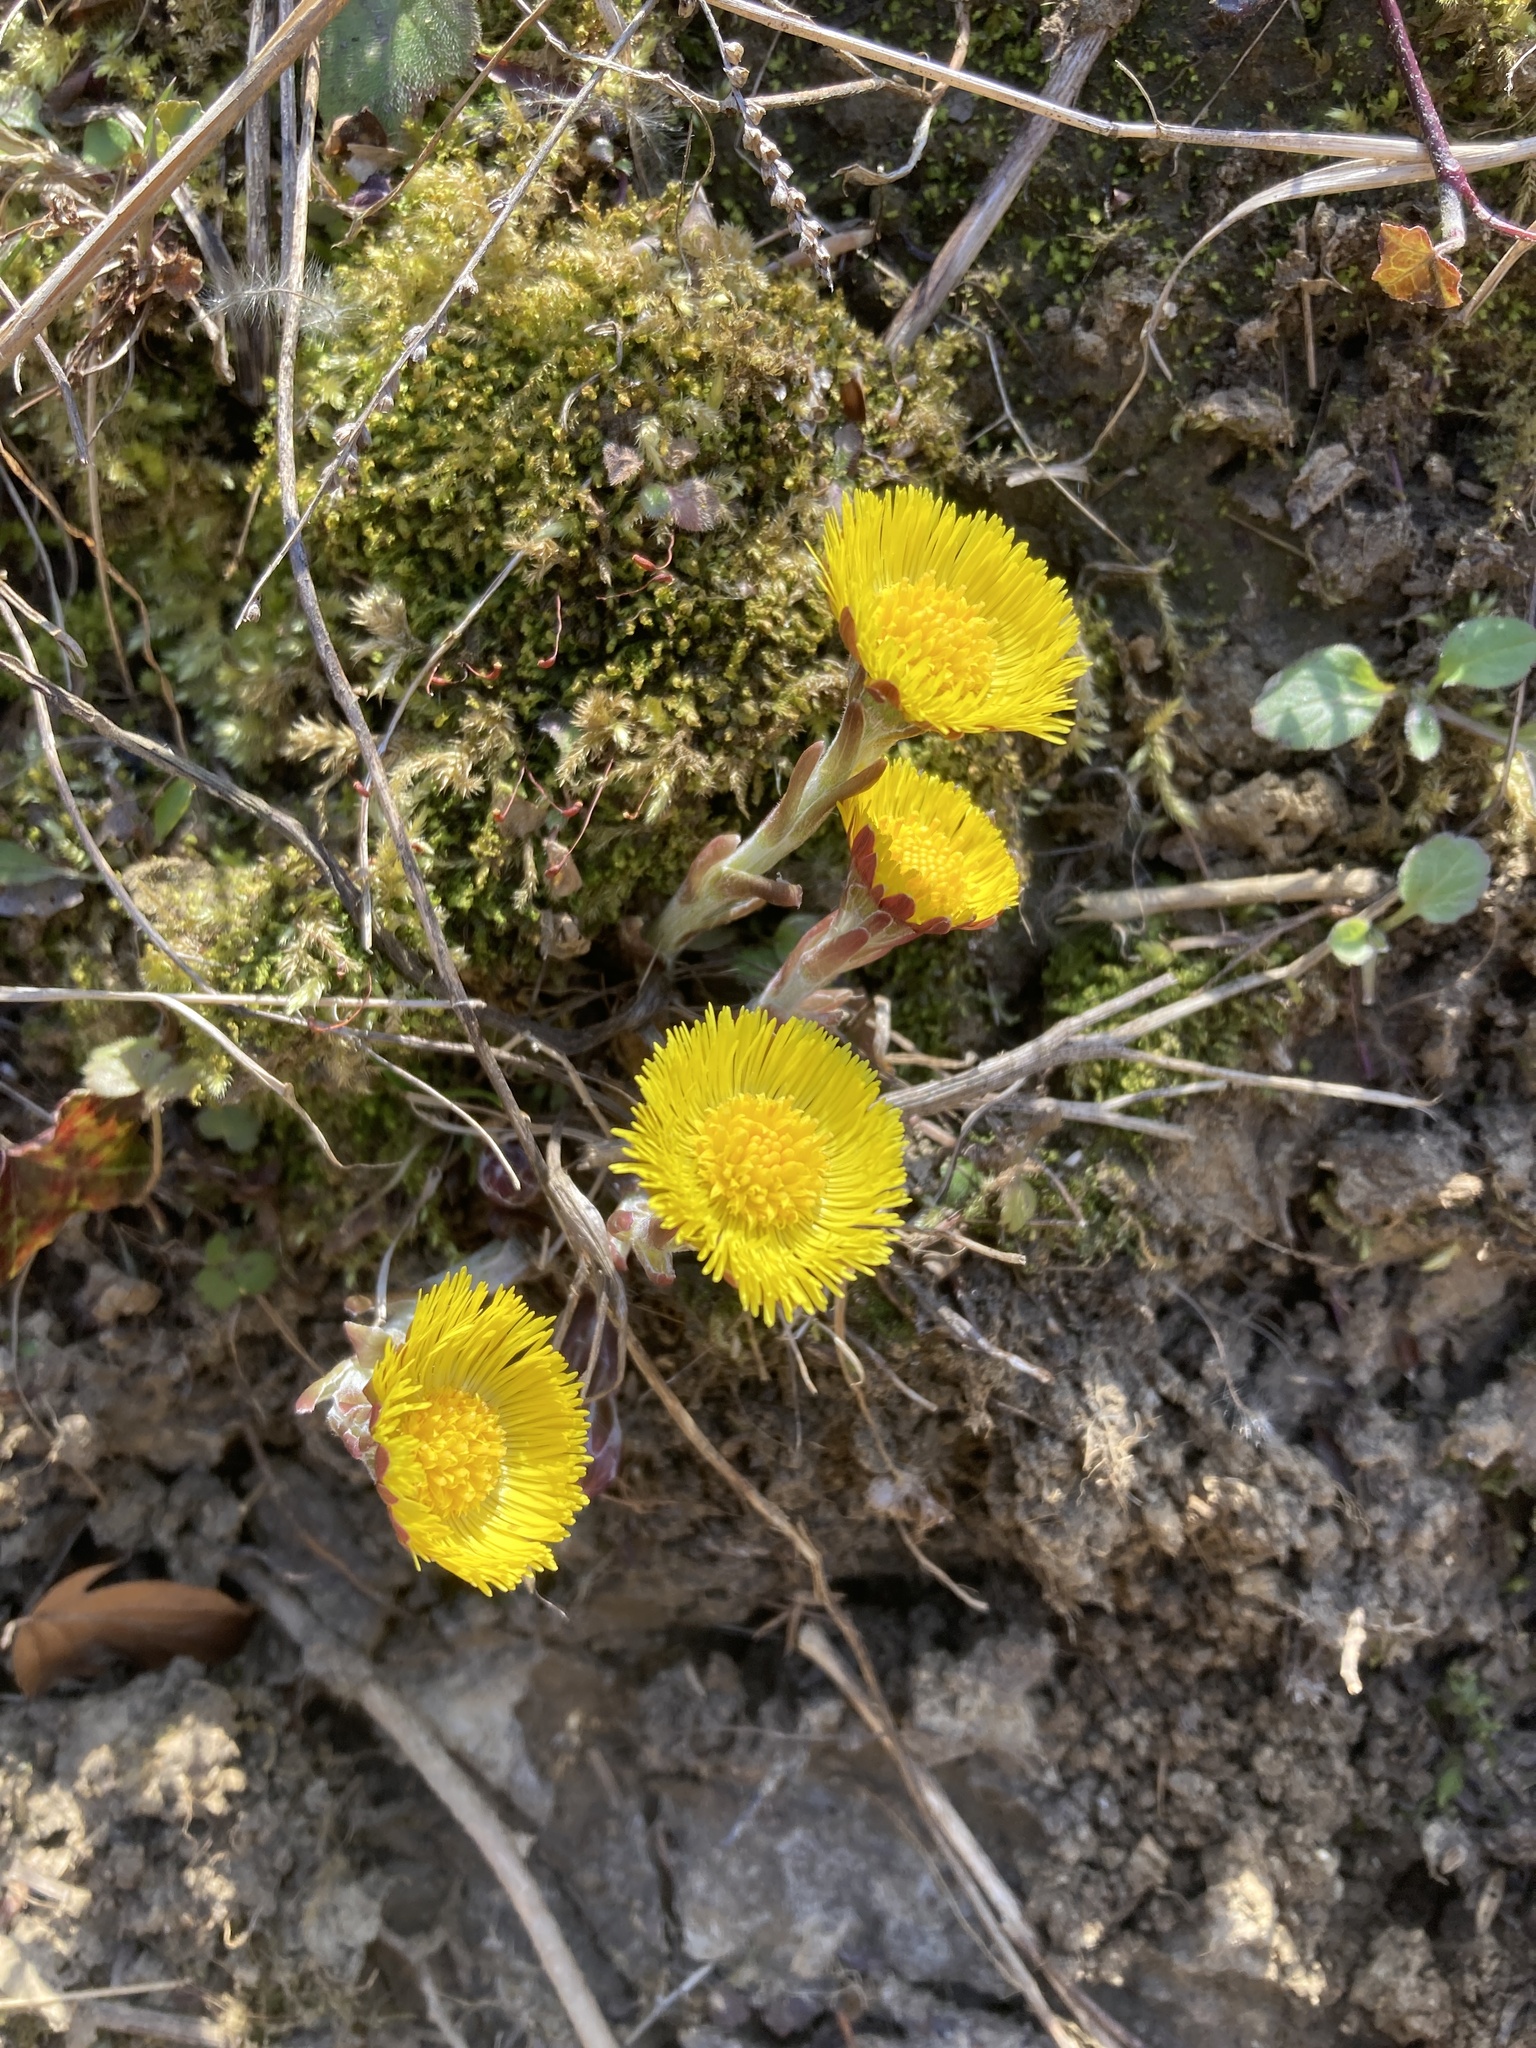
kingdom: Plantae
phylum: Tracheophyta
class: Magnoliopsida
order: Asterales
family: Asteraceae
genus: Tussilago
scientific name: Tussilago farfara
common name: Coltsfoot
